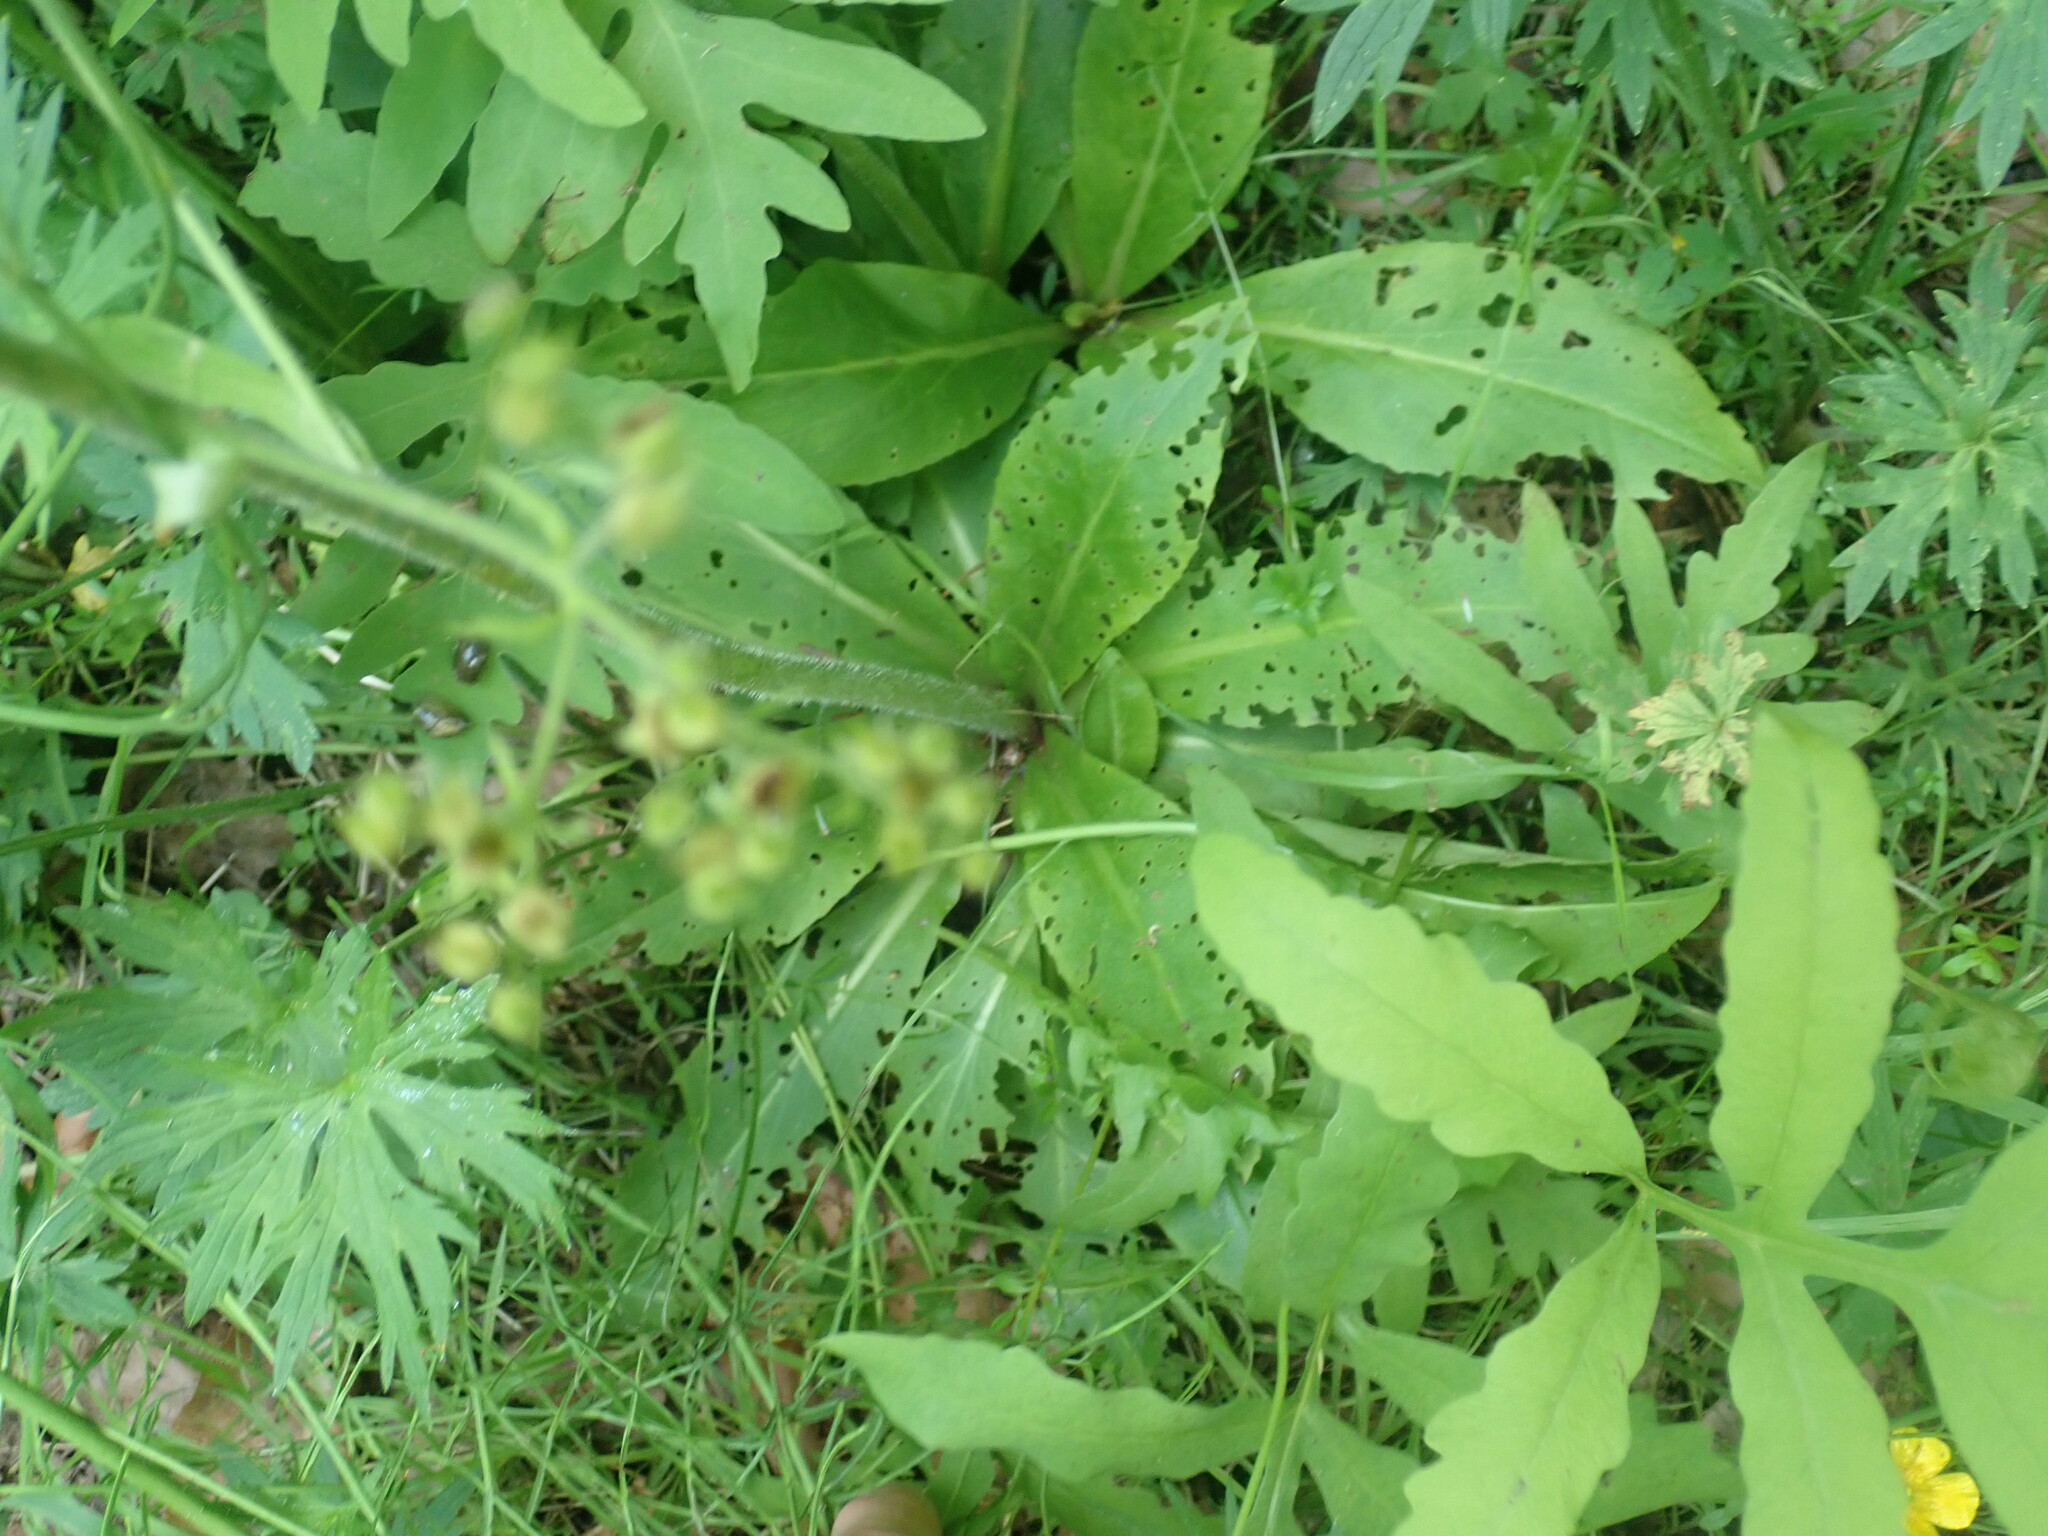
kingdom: Plantae
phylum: Tracheophyta
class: Magnoliopsida
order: Saxifragales
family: Saxifragaceae
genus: Micranthes
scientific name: Micranthes pensylvanica
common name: Marsh saxifrage
